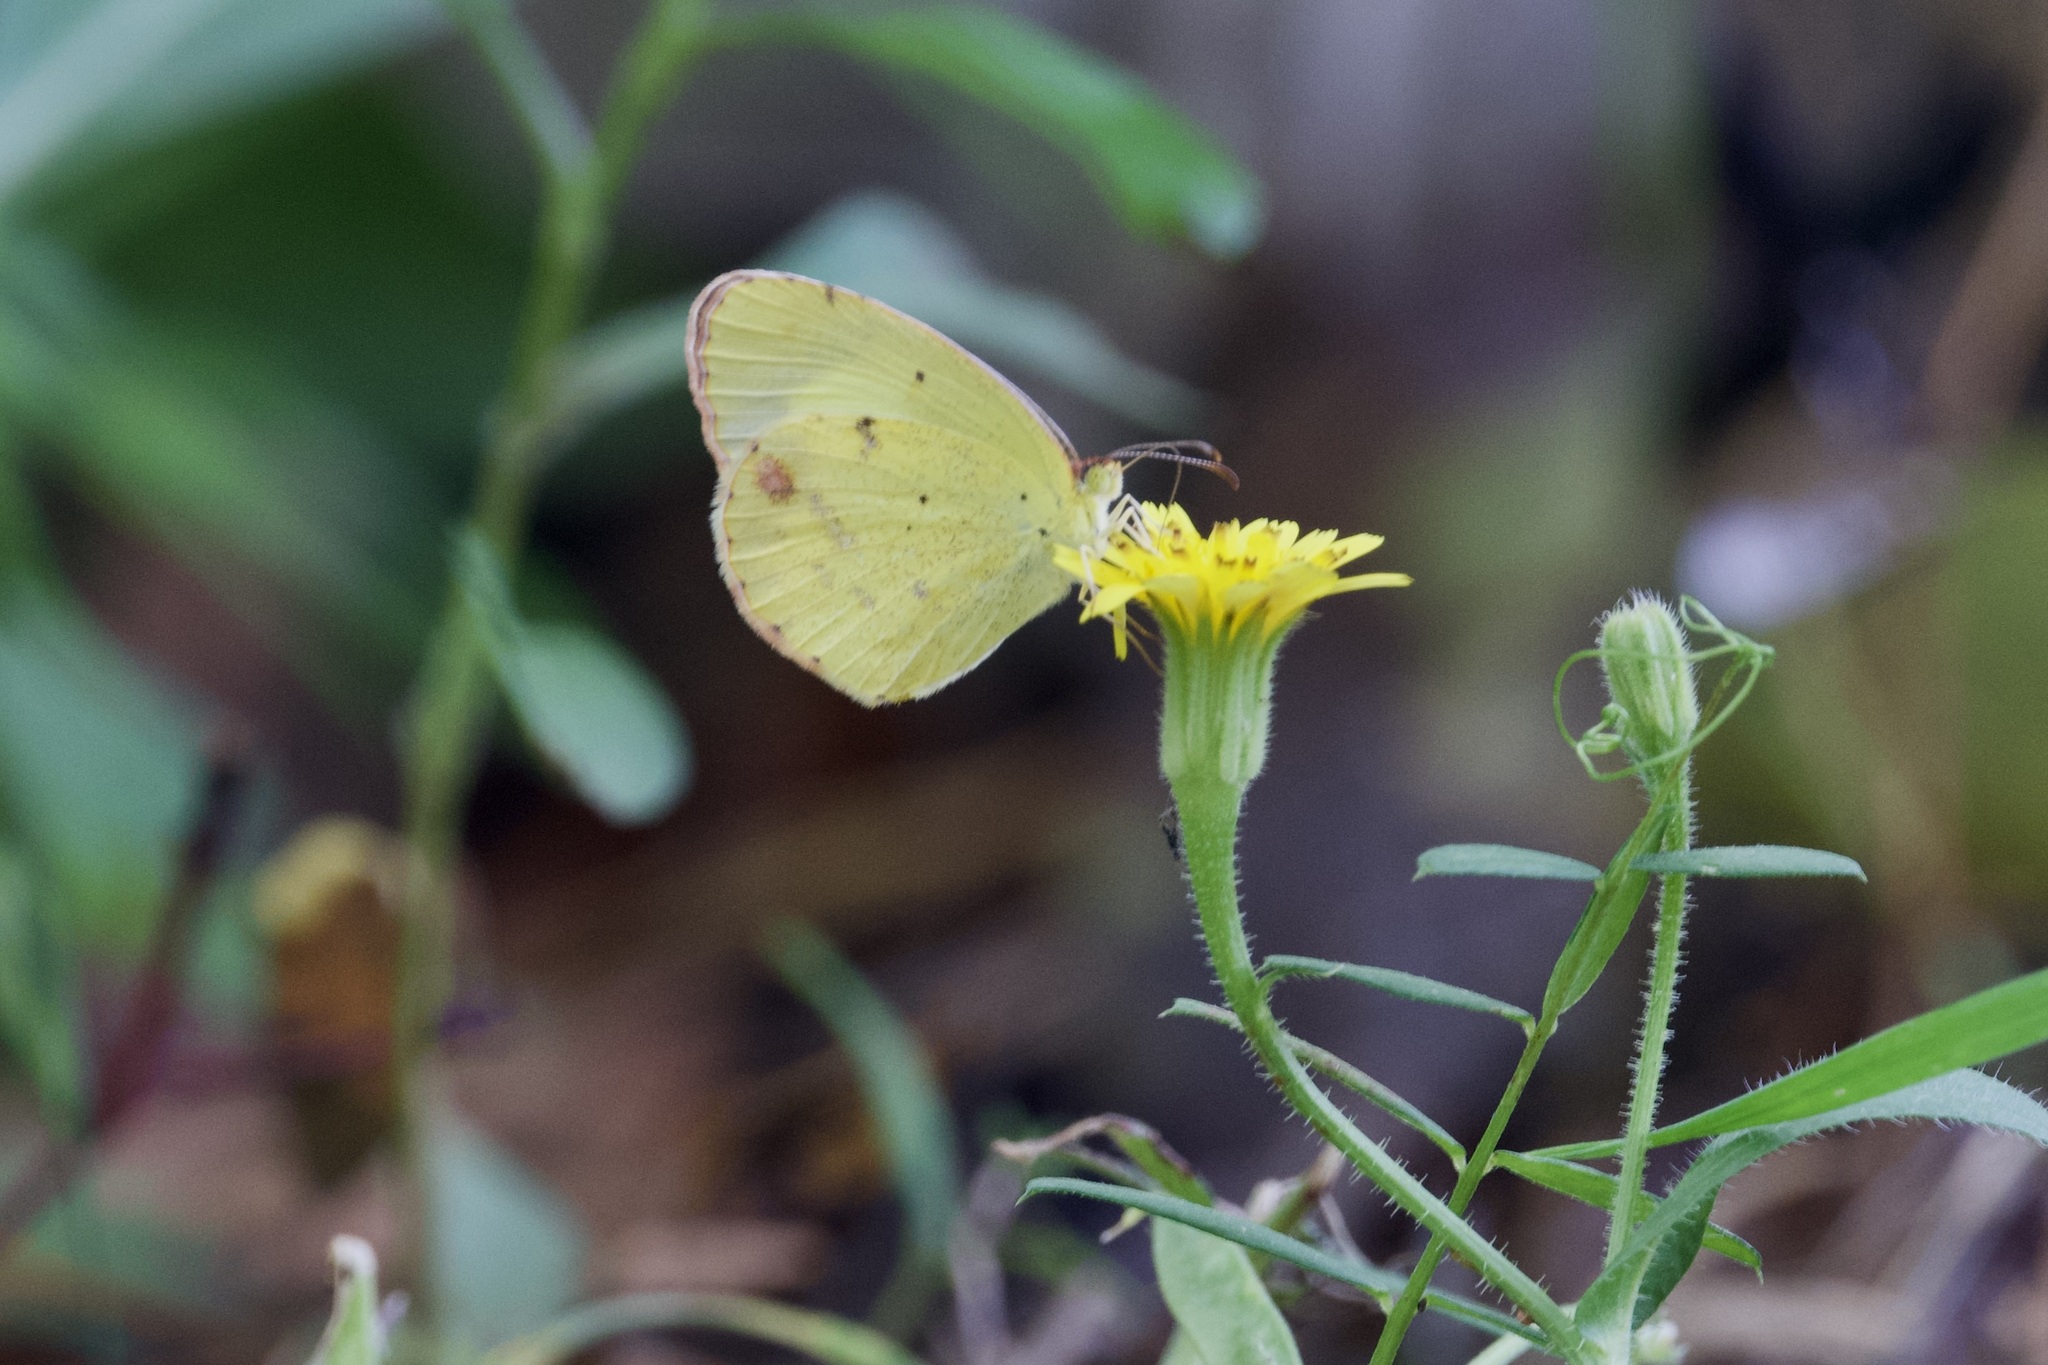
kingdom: Animalia
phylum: Arthropoda
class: Insecta
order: Lepidoptera
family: Pieridae
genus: Pyrisitia
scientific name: Pyrisitia lisa
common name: Little yellow
